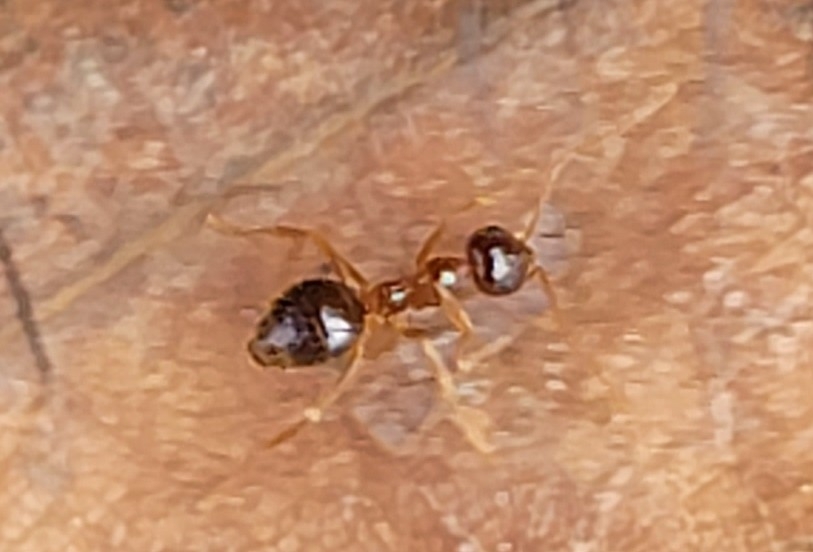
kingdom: Animalia
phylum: Arthropoda
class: Insecta
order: Hymenoptera
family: Formicidae
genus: Prenolepis
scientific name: Prenolepis imparis
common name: Small honey ant
